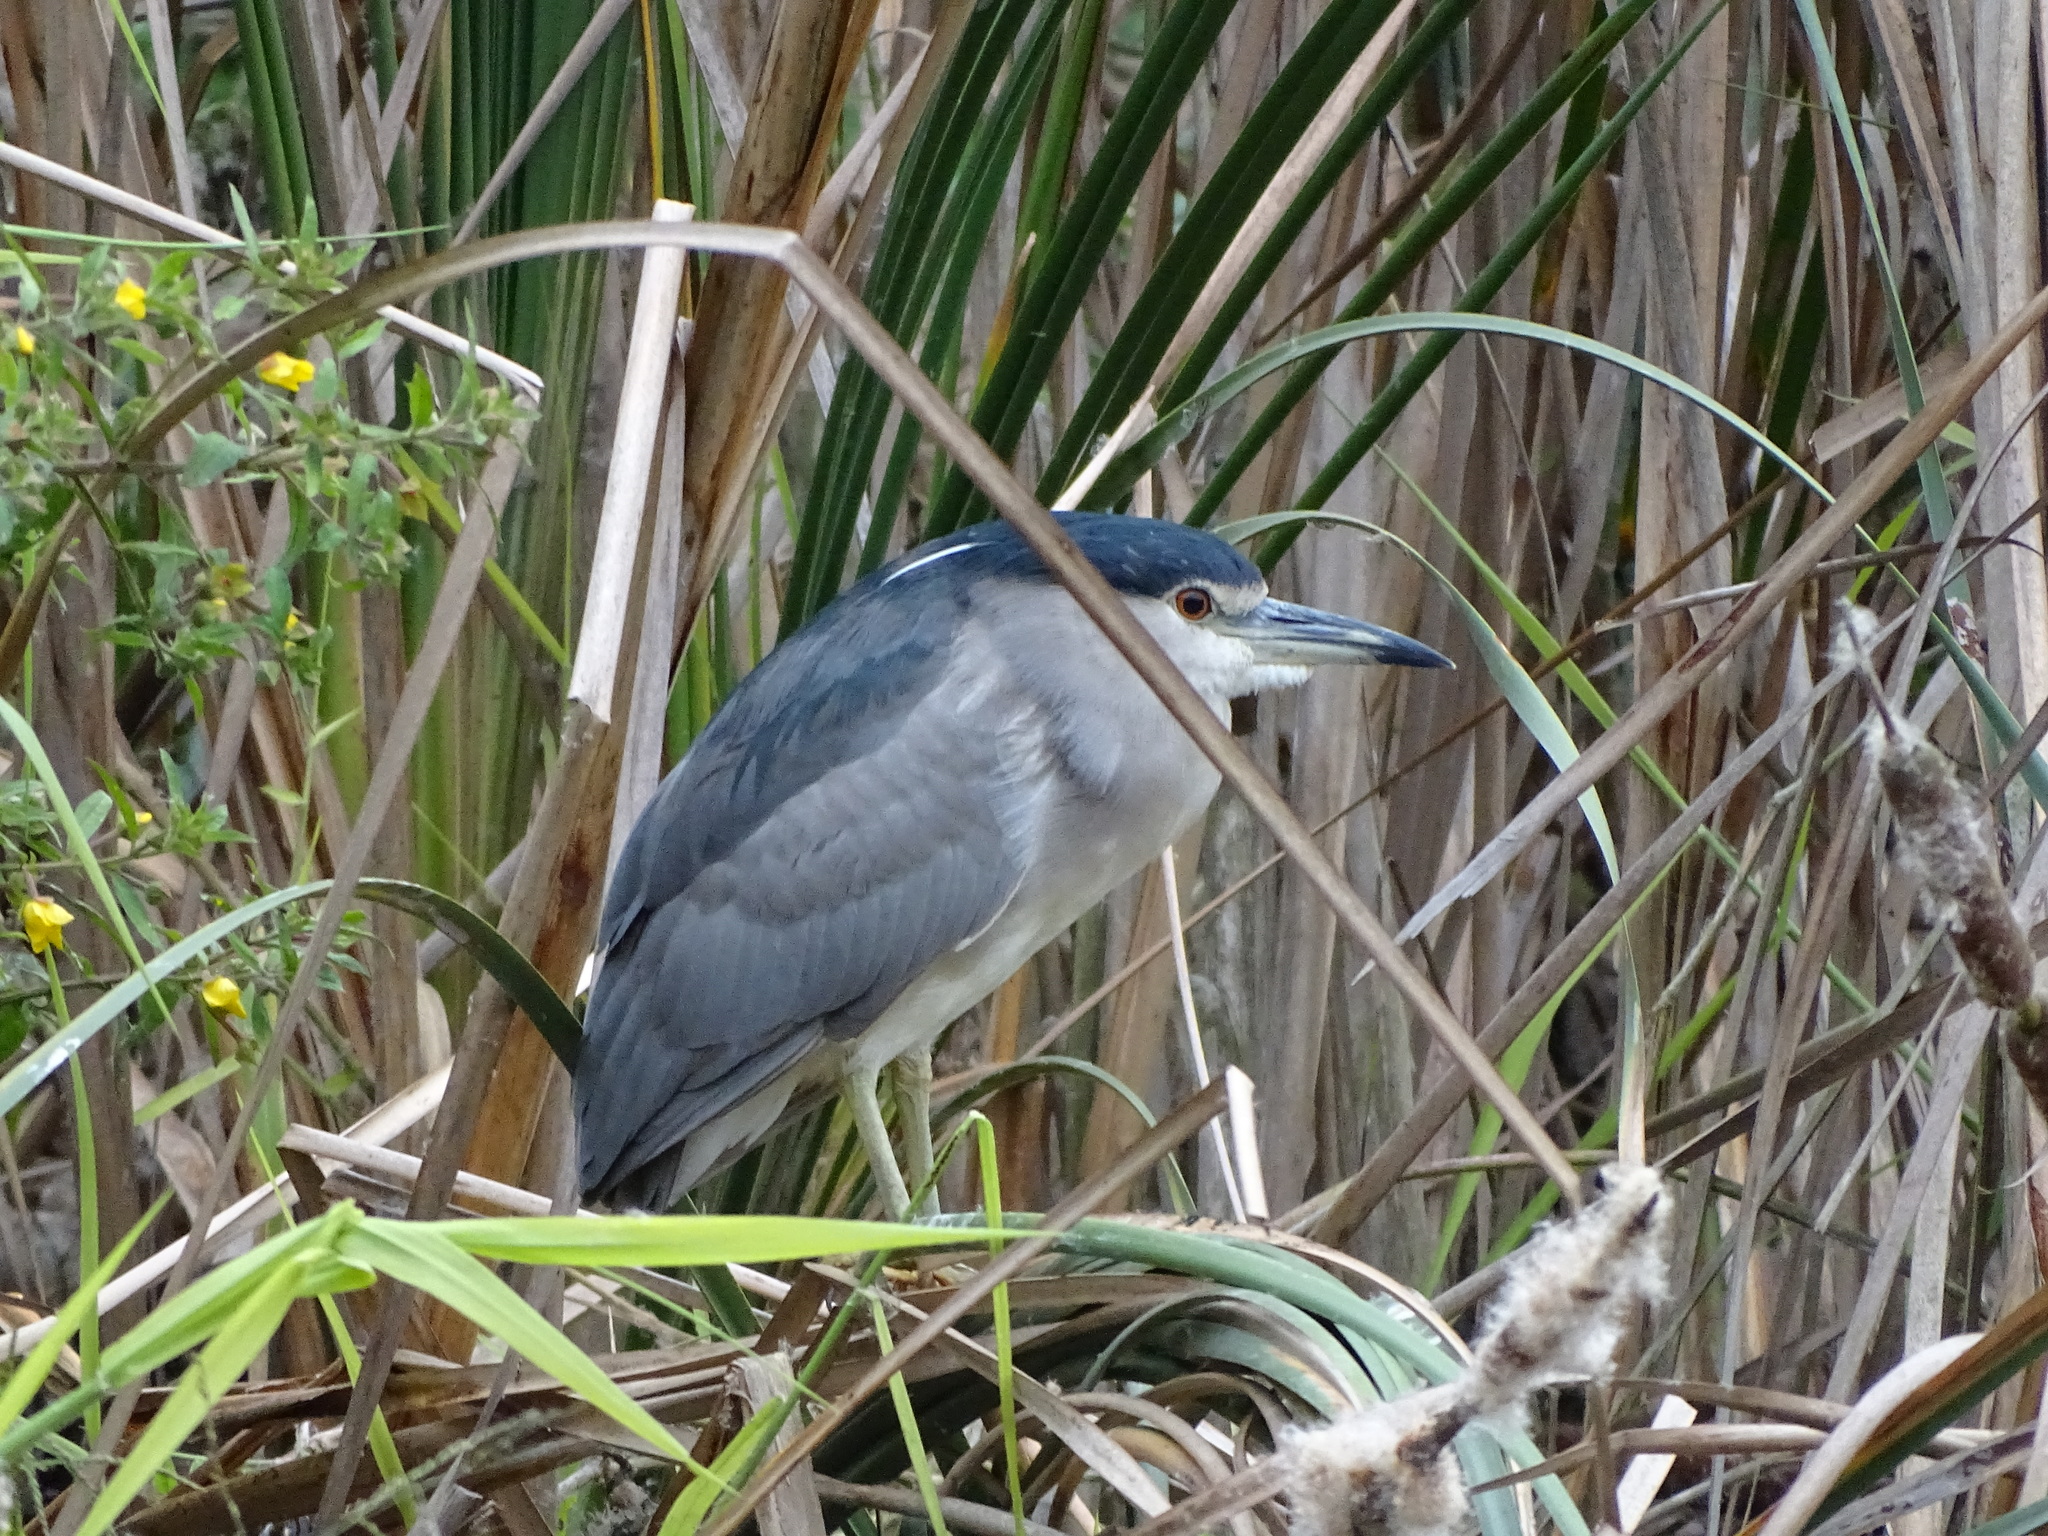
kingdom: Animalia
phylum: Chordata
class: Aves
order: Pelecaniformes
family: Ardeidae
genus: Nycticorax
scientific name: Nycticorax nycticorax
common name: Black-crowned night heron
